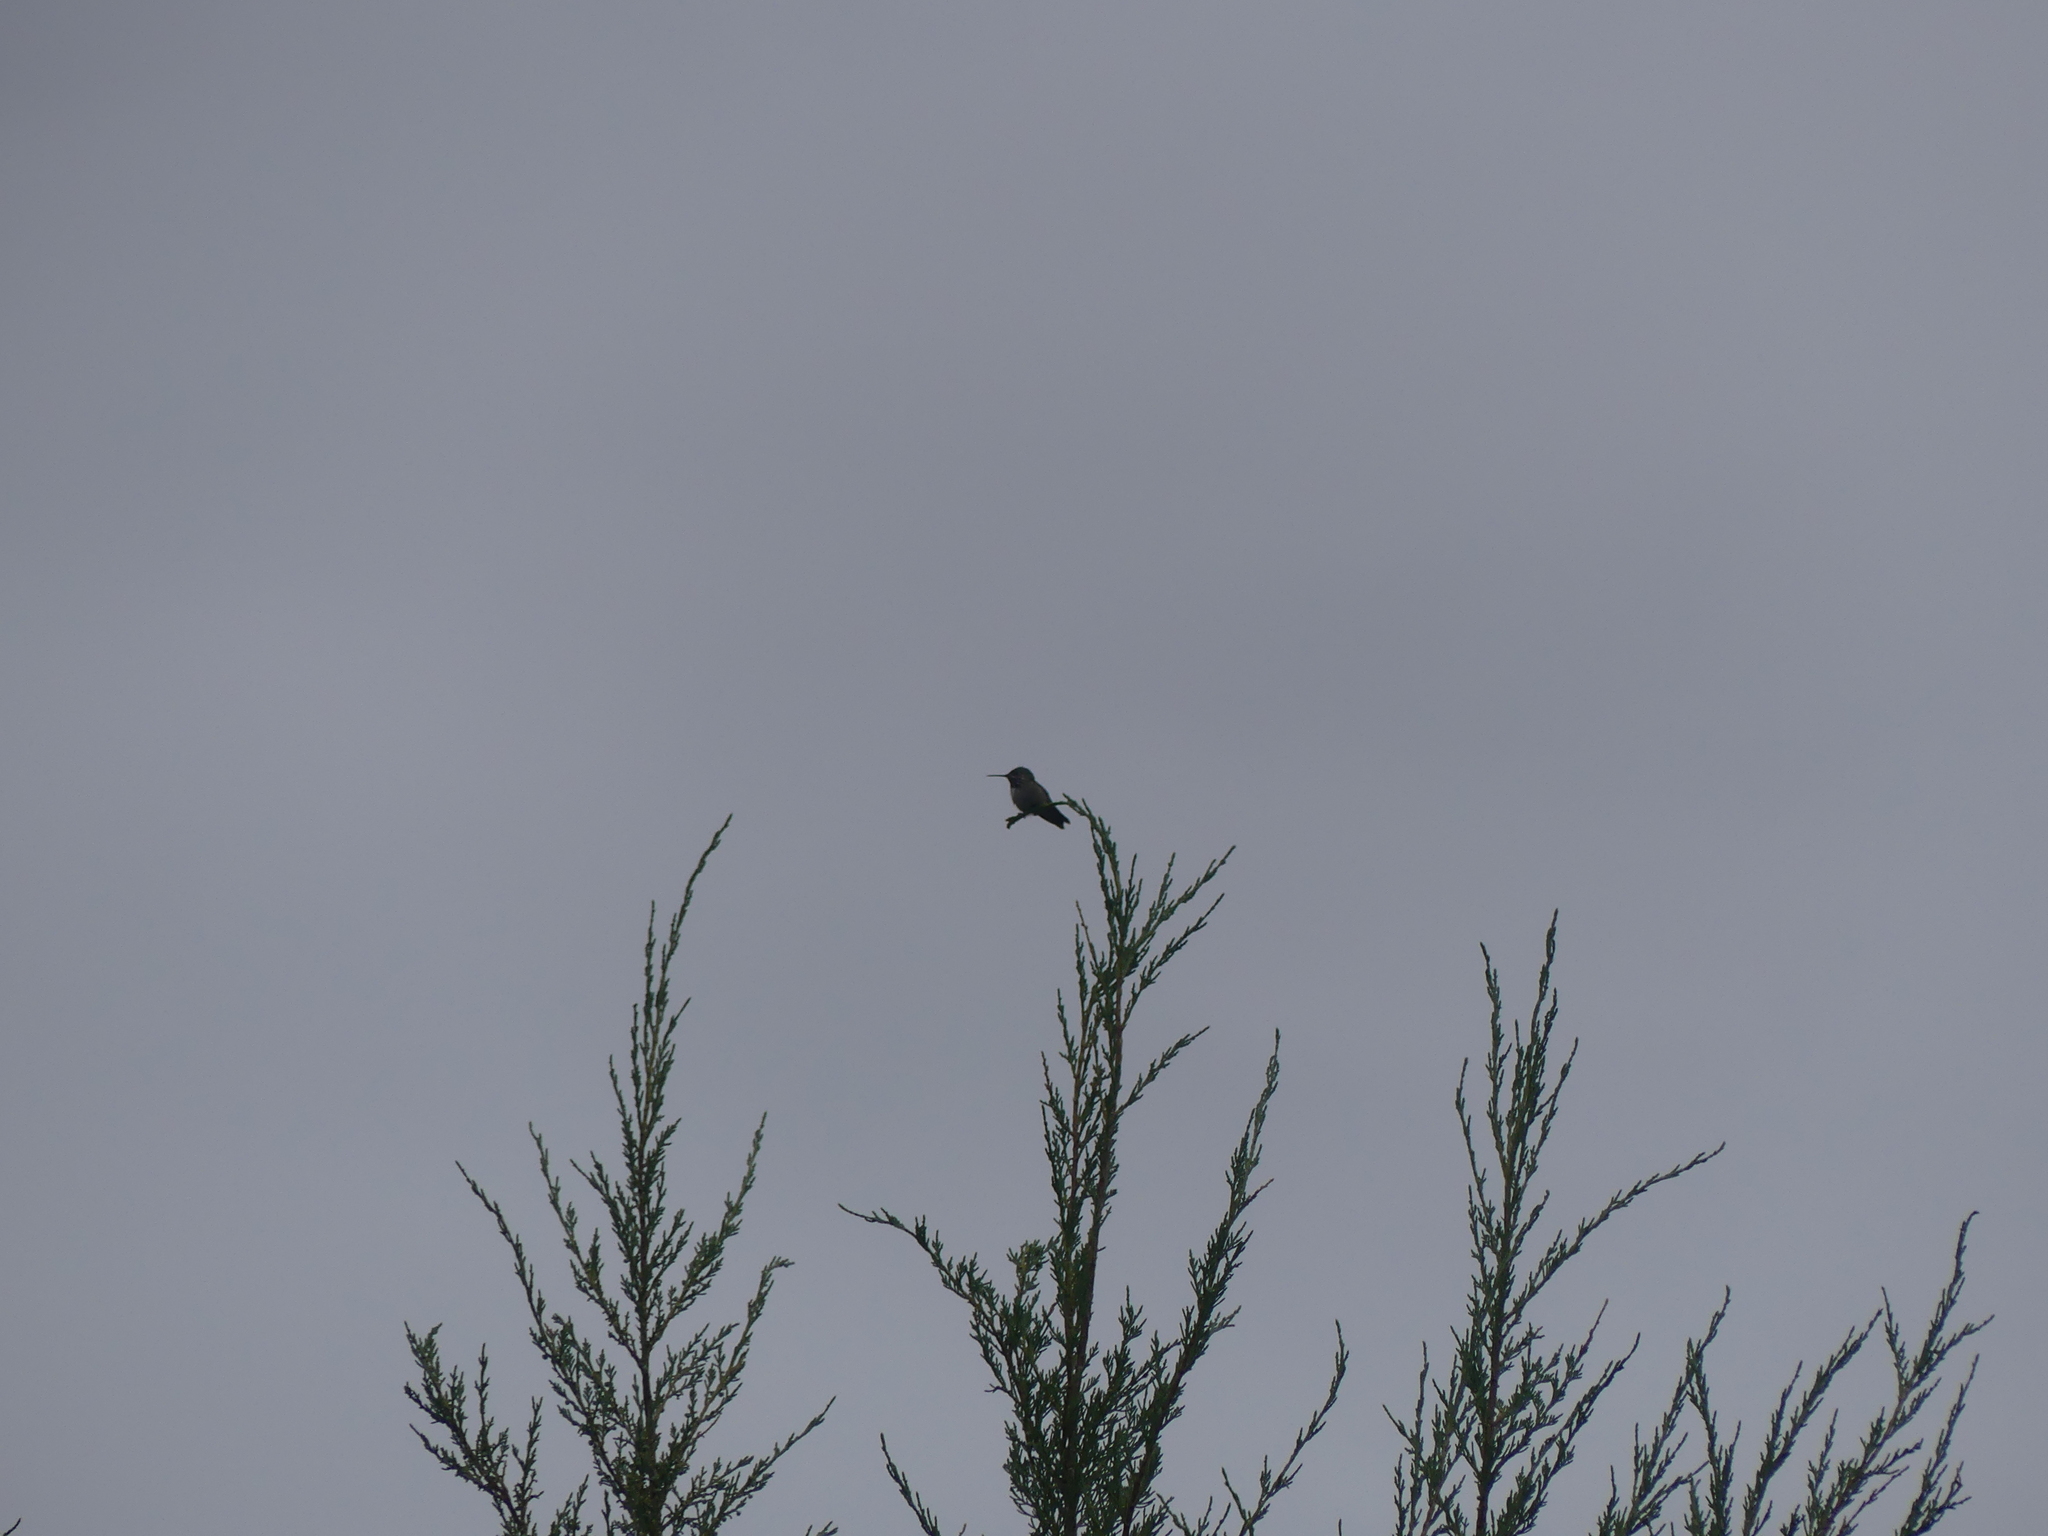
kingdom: Animalia
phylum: Chordata
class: Aves
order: Apodiformes
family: Trochilidae
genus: Selasphorus
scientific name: Selasphorus calliope
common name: Calliope hummingbird
